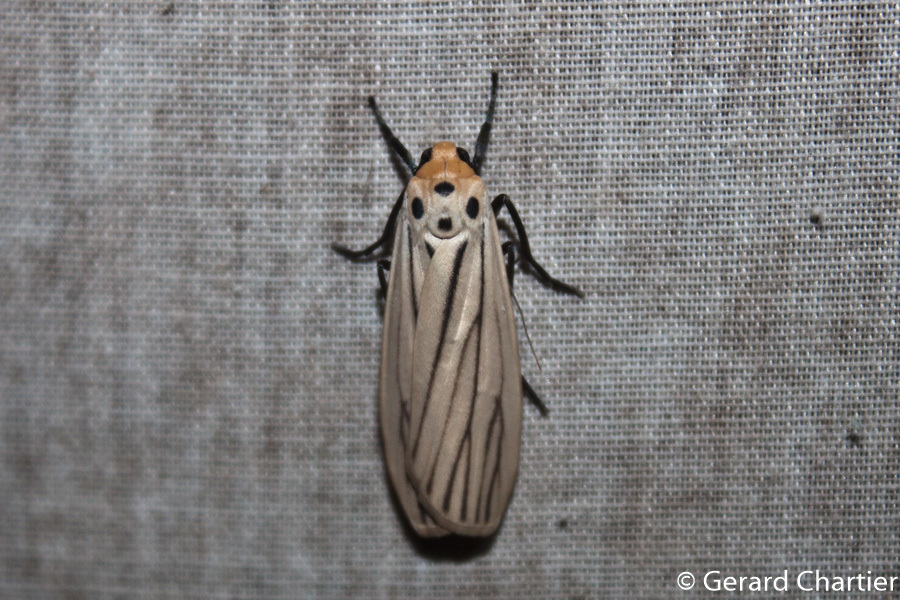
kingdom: Animalia
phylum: Arthropoda
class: Insecta
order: Lepidoptera
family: Erebidae
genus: Tigrioides
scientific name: Tigrioides leucanioides
